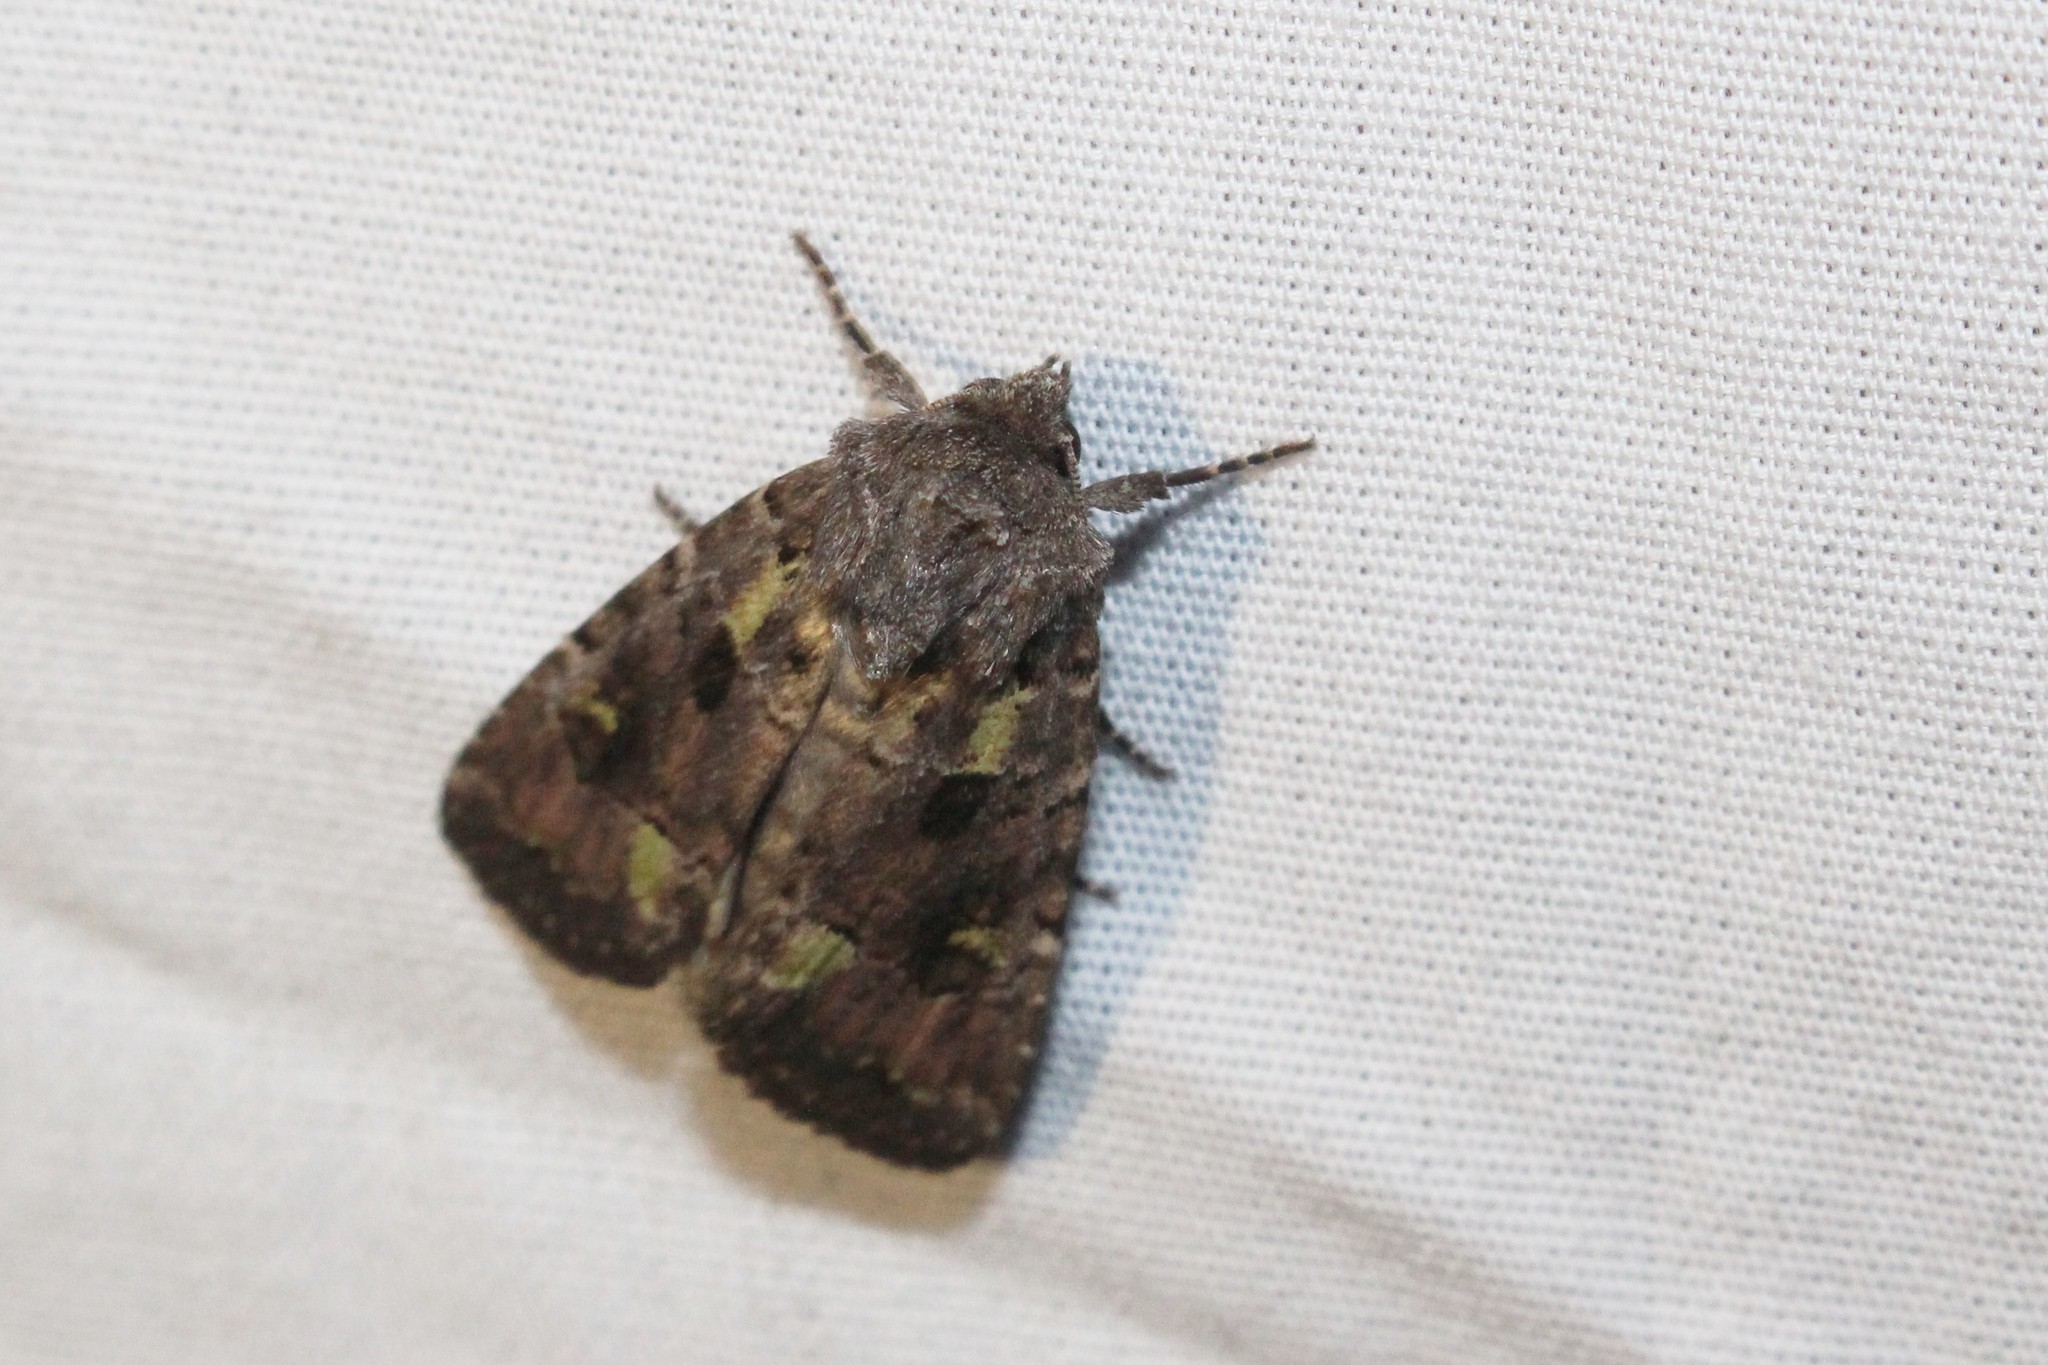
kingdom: Animalia
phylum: Arthropoda
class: Insecta
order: Lepidoptera
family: Noctuidae
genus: Lacinipolia
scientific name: Lacinipolia renigera
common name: Kidney-spotted minor
